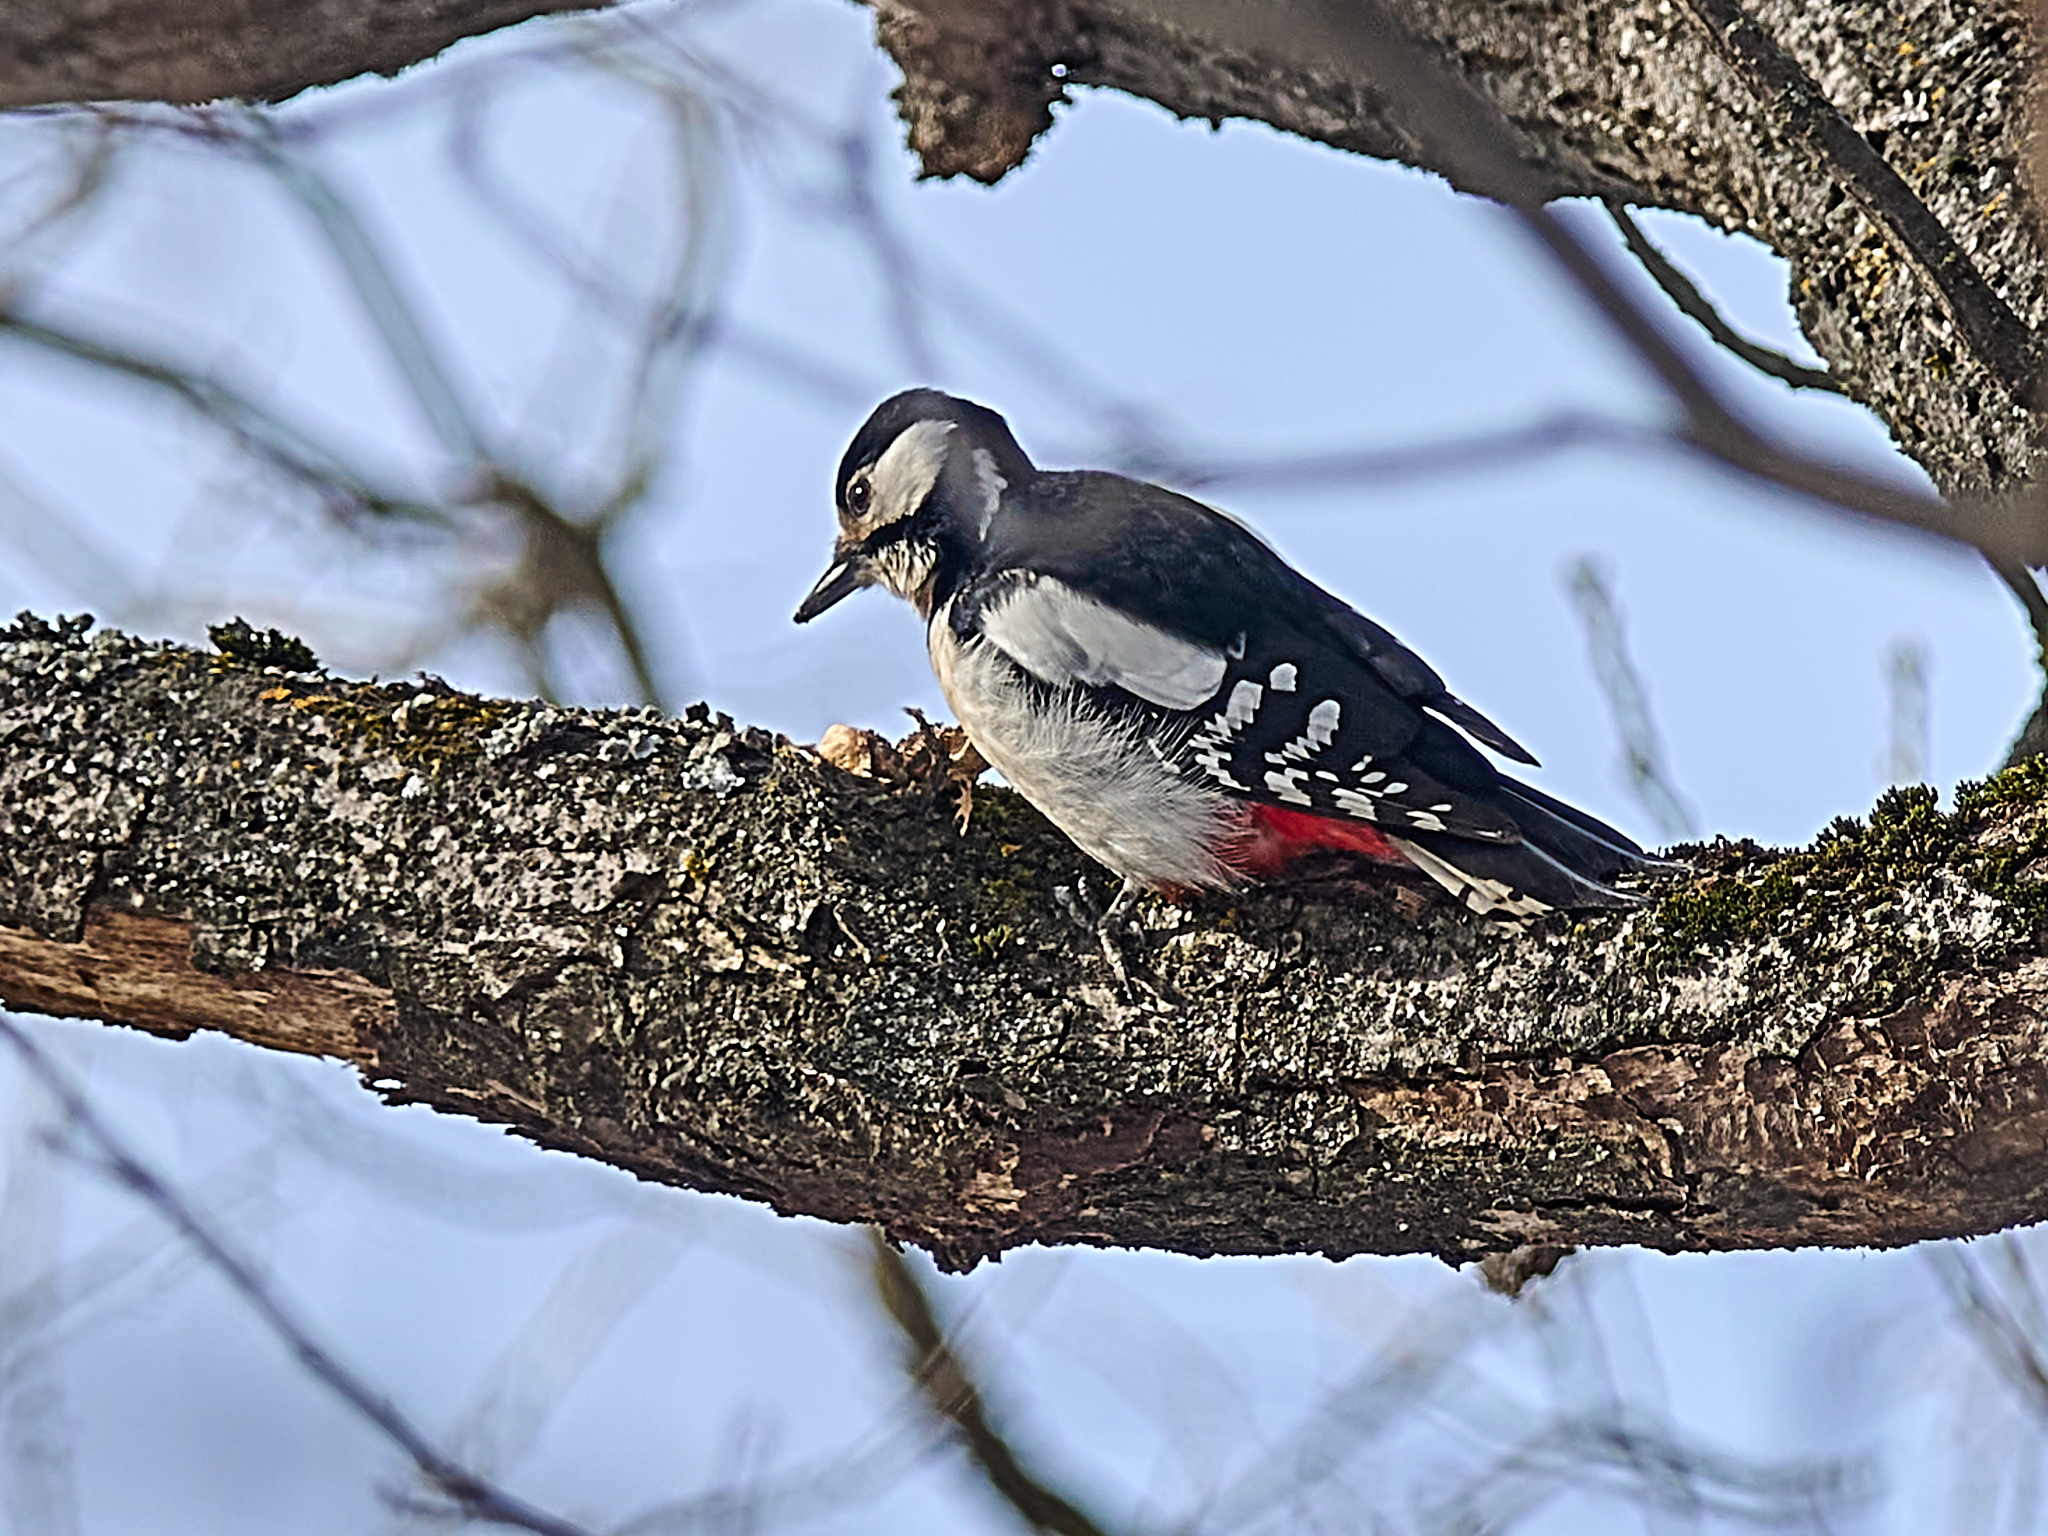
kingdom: Animalia
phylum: Chordata
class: Aves
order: Piciformes
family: Picidae
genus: Dendrocopos
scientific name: Dendrocopos major
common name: Great spotted woodpecker
